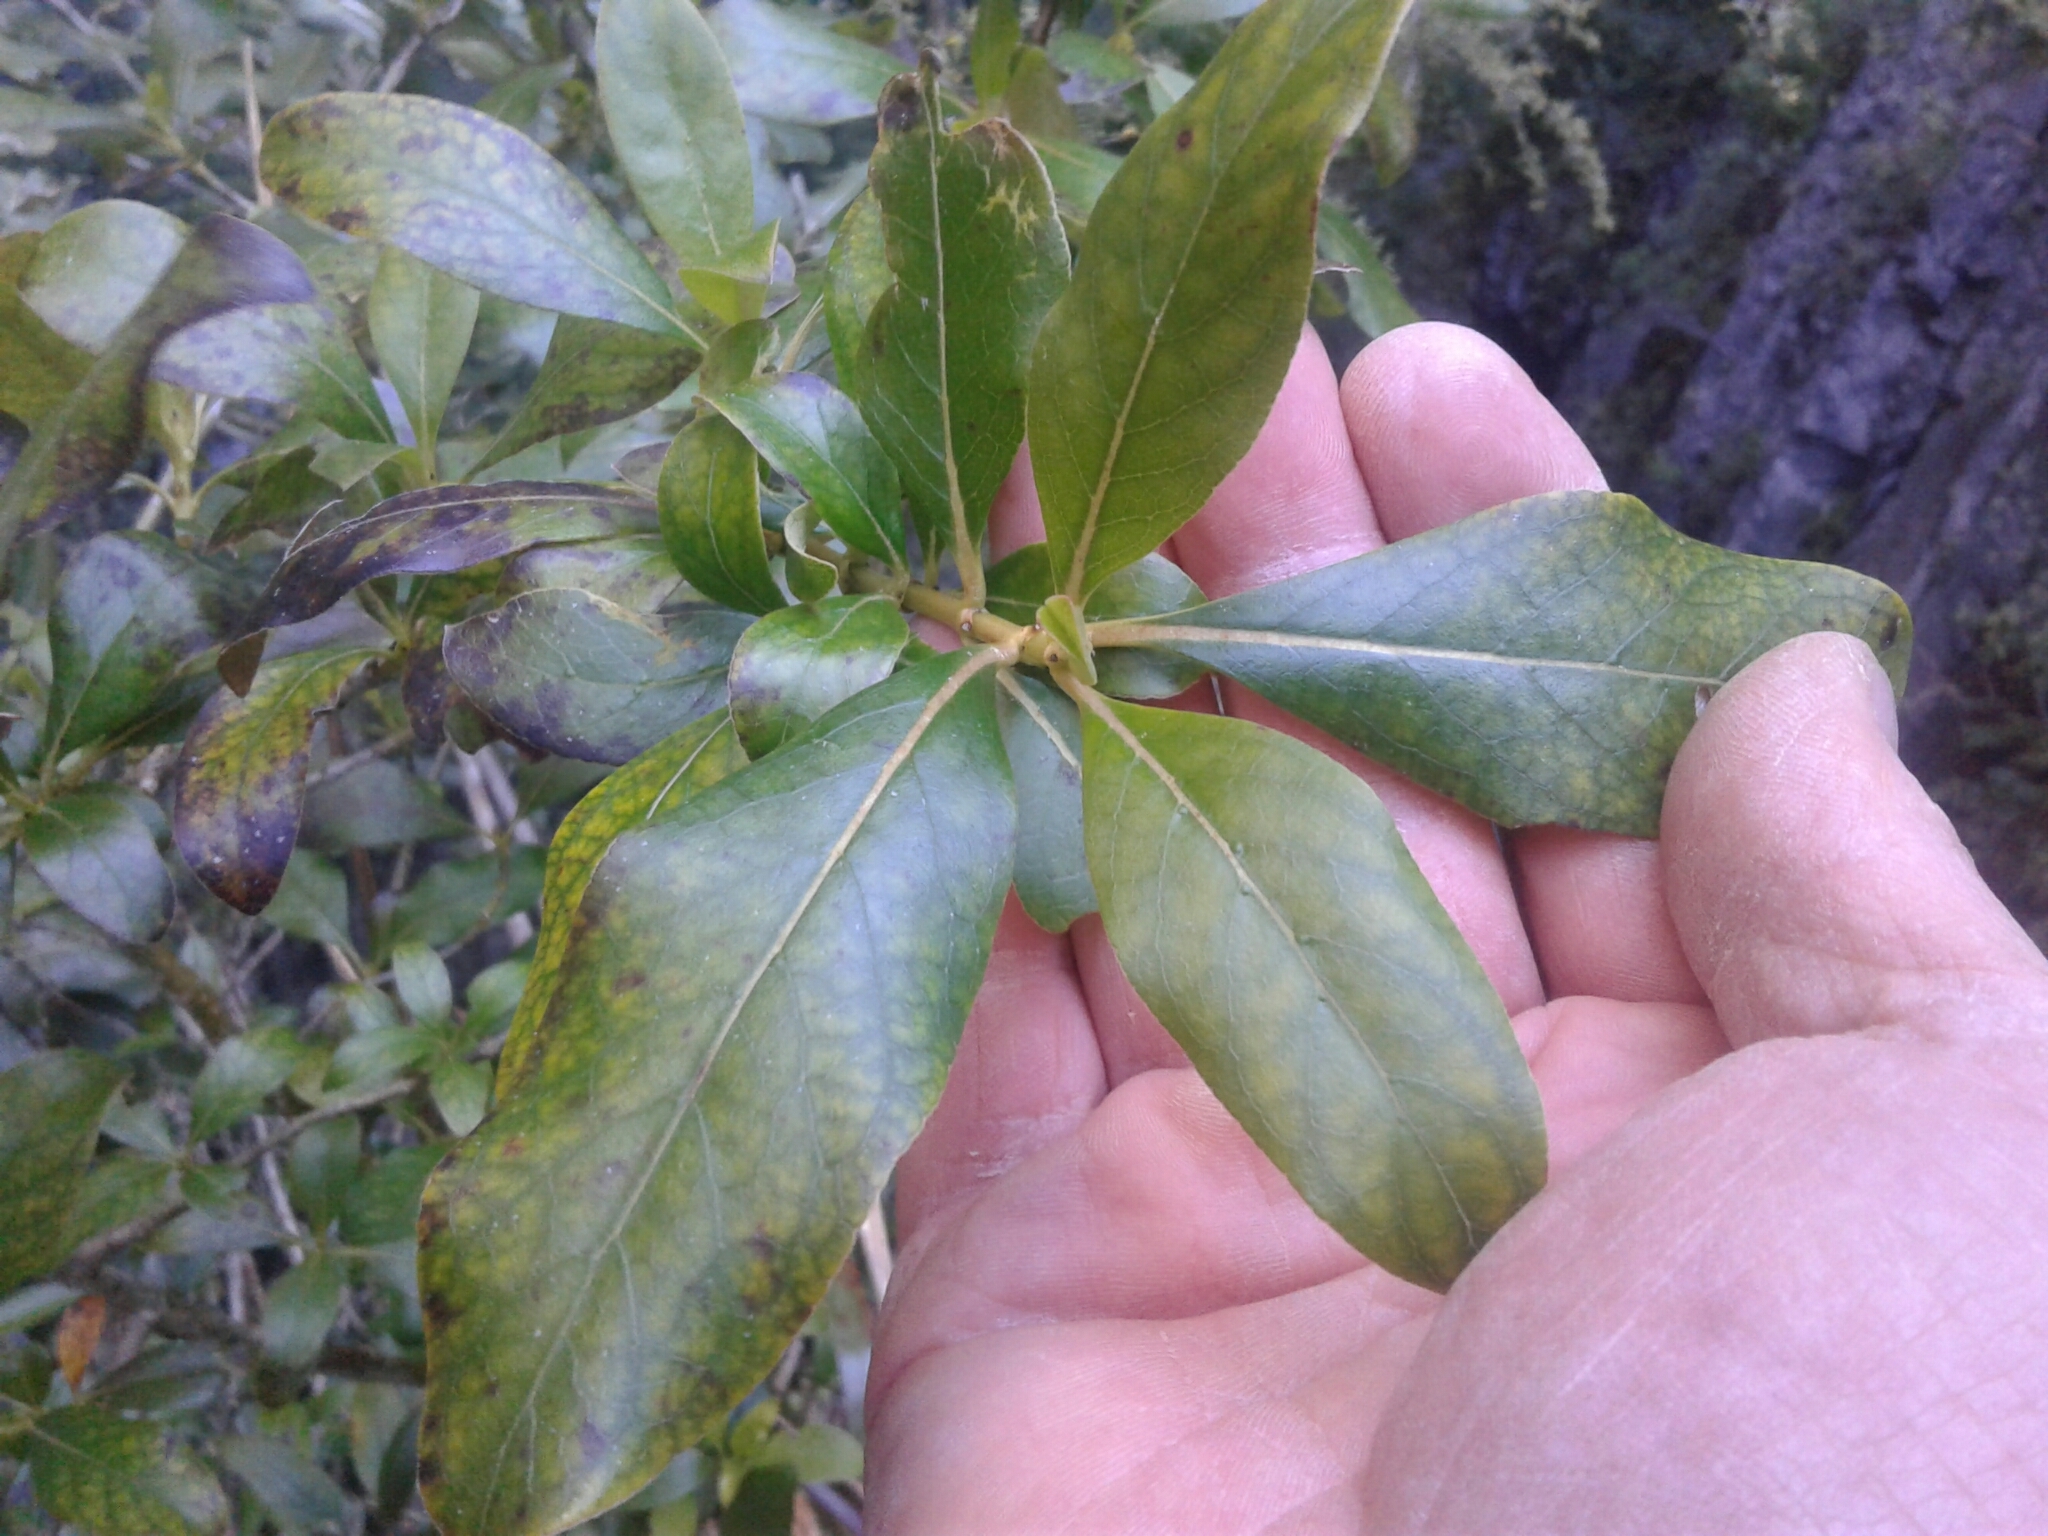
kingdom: Plantae
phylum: Tracheophyta
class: Magnoliopsida
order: Gentianales
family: Rubiaceae
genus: Coprosma
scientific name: Coprosma robusta
